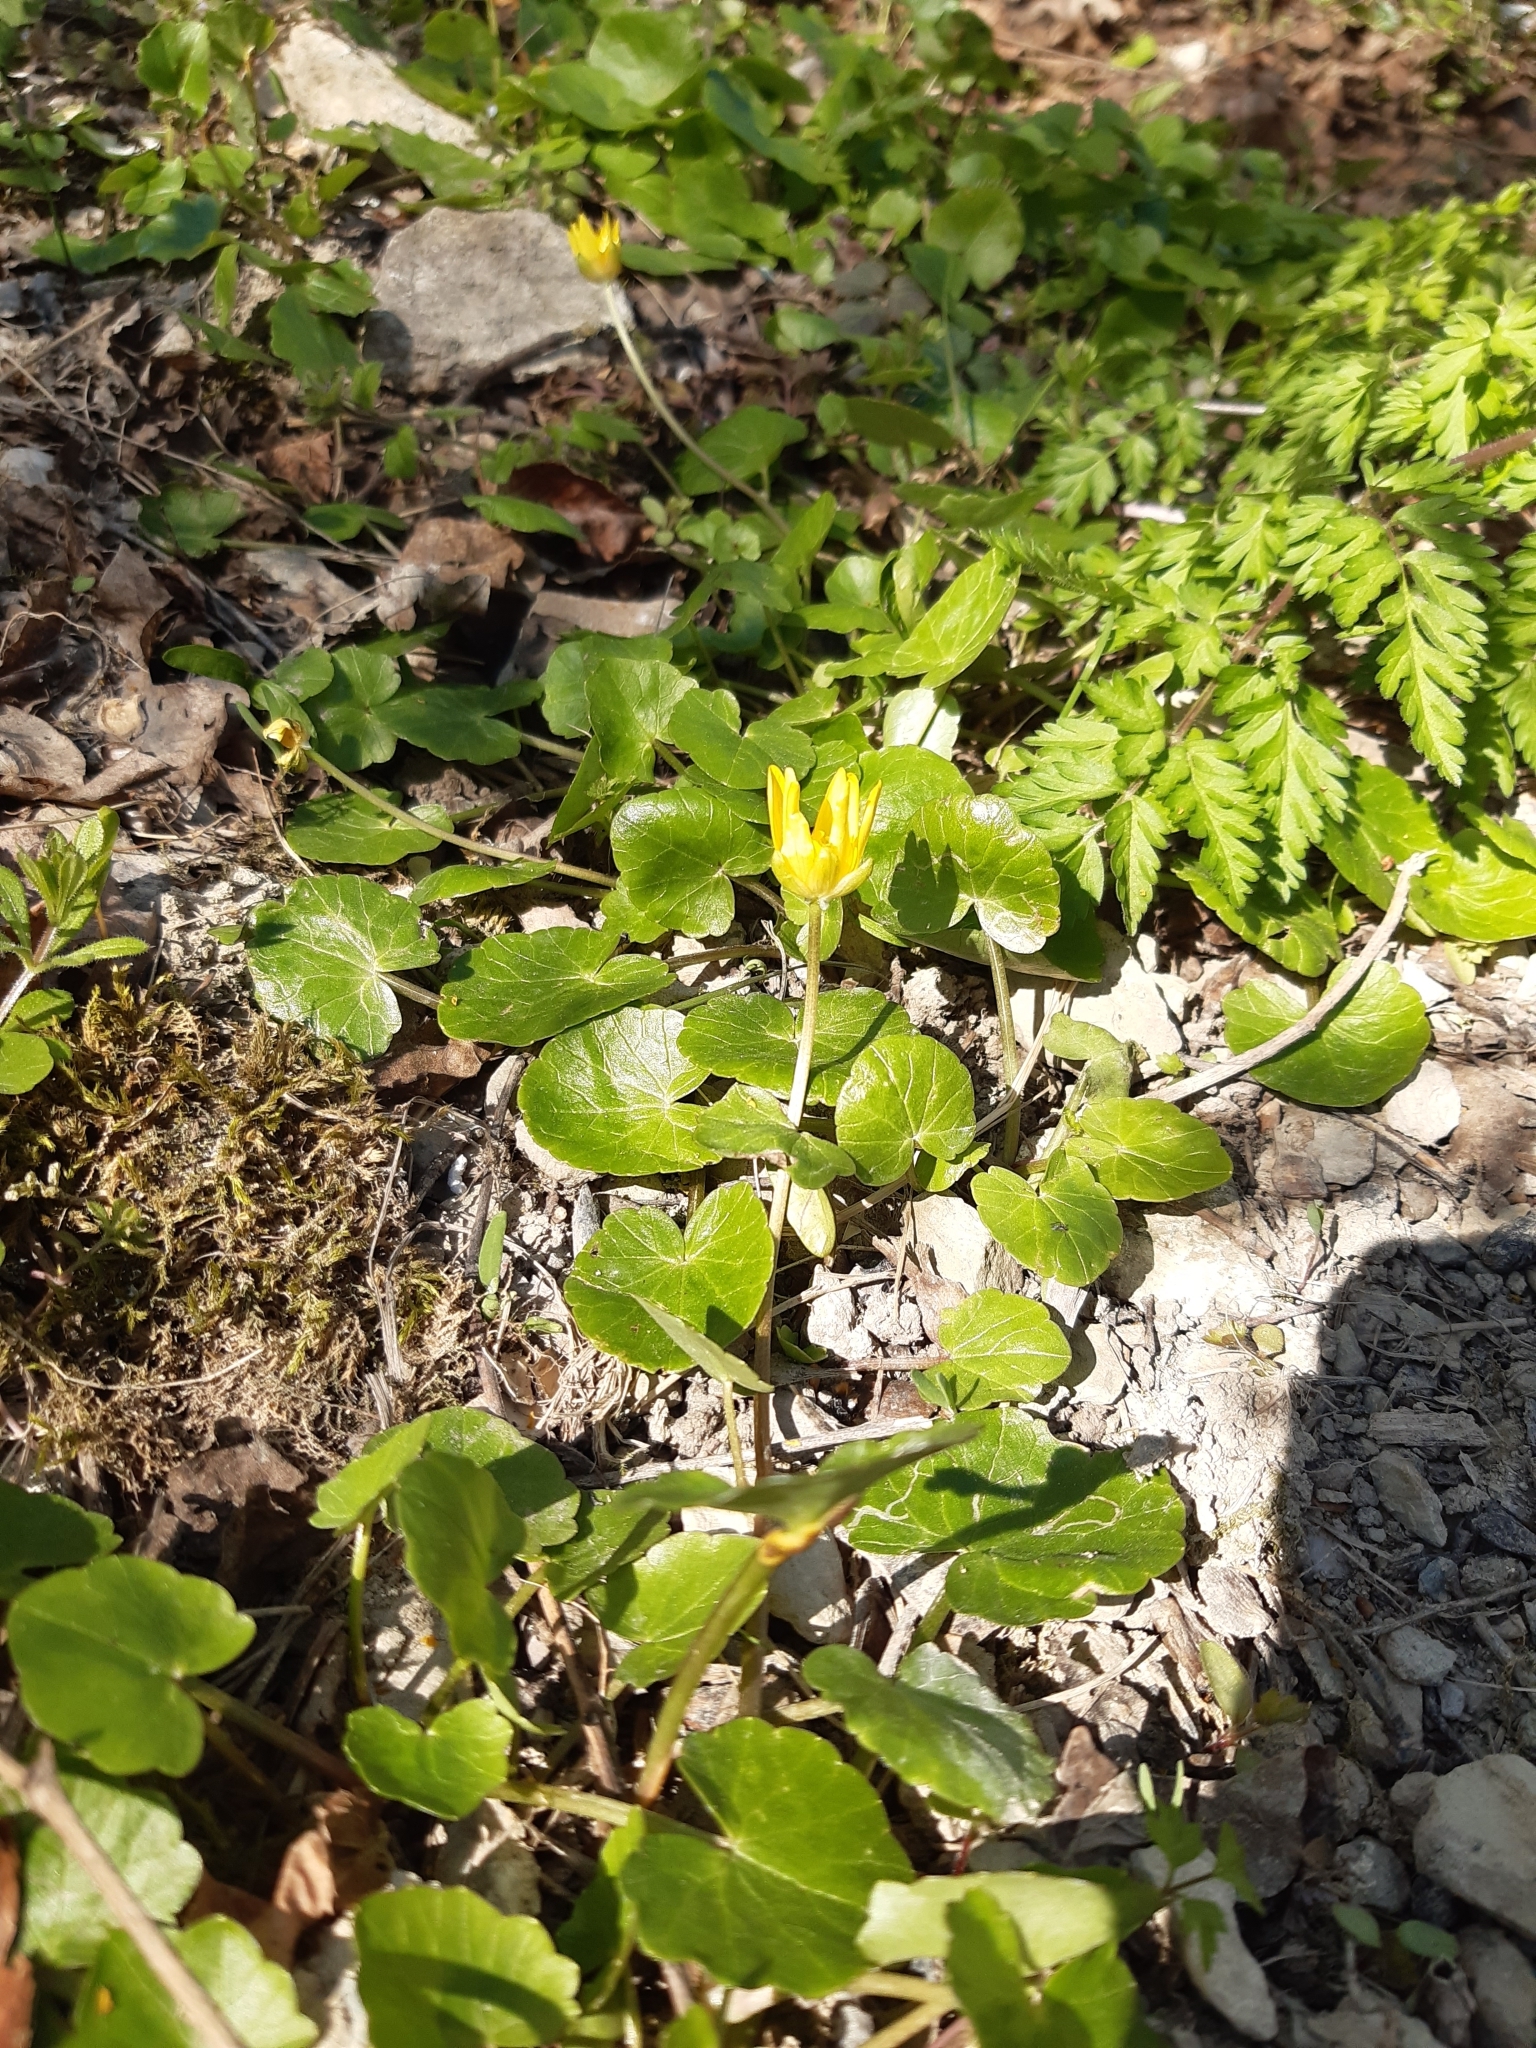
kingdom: Plantae
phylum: Tracheophyta
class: Magnoliopsida
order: Ranunculales
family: Ranunculaceae
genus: Ficaria
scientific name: Ficaria verna
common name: Lesser celandine
